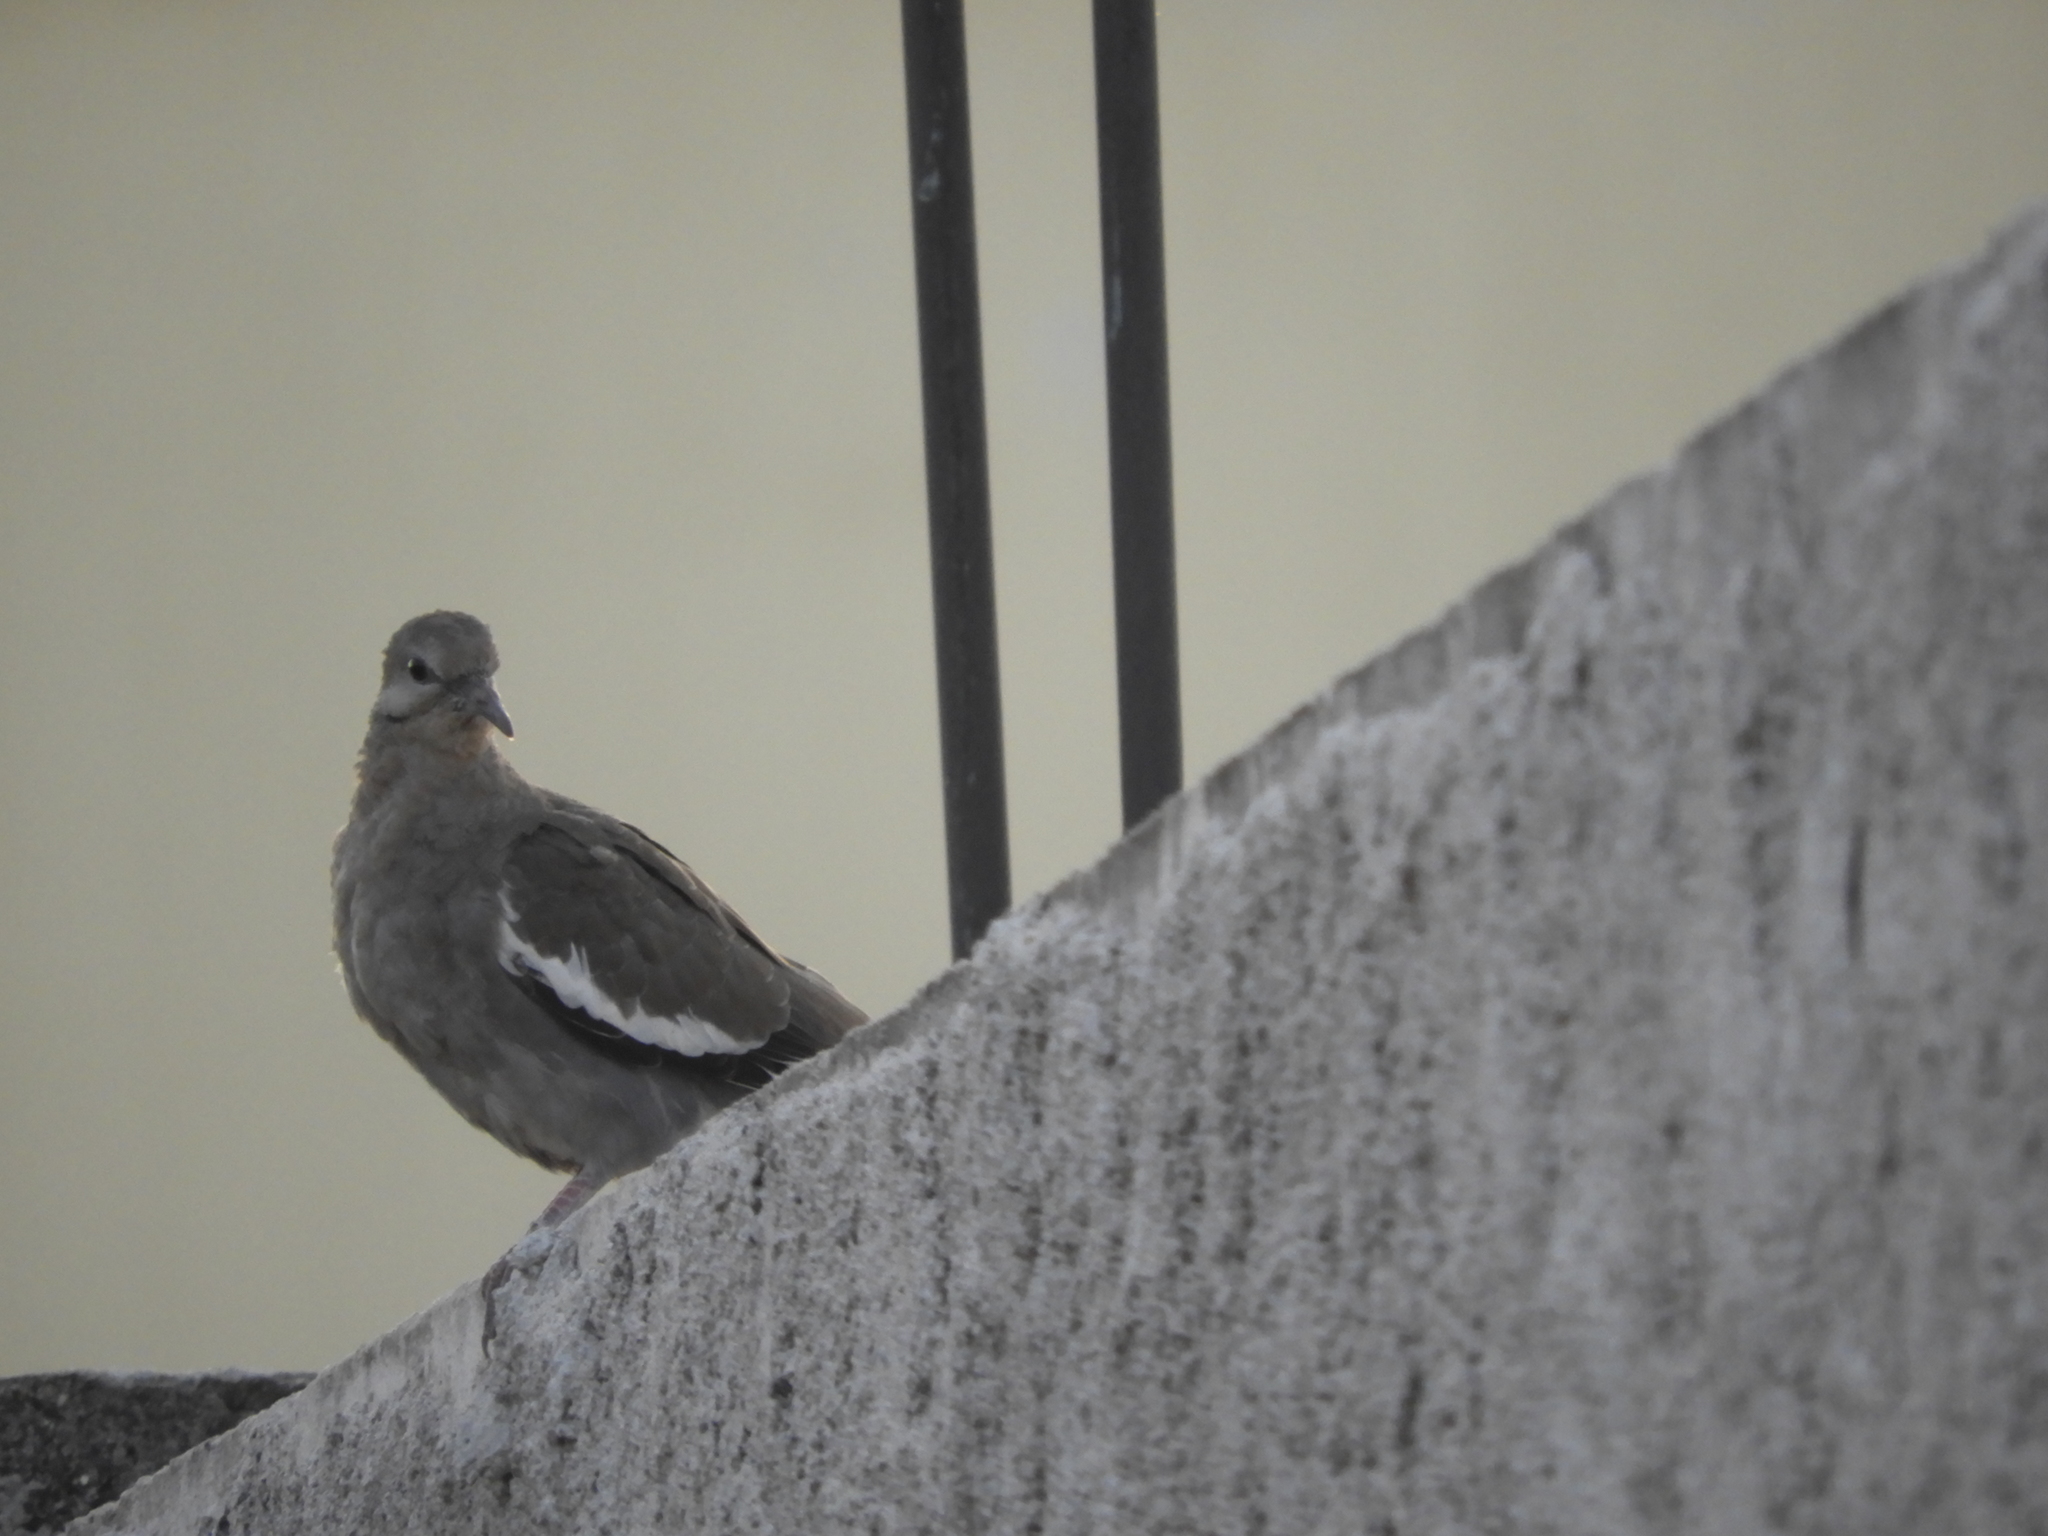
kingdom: Animalia
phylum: Chordata
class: Aves
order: Columbiformes
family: Columbidae
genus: Zenaida
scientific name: Zenaida asiatica
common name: White-winged dove
